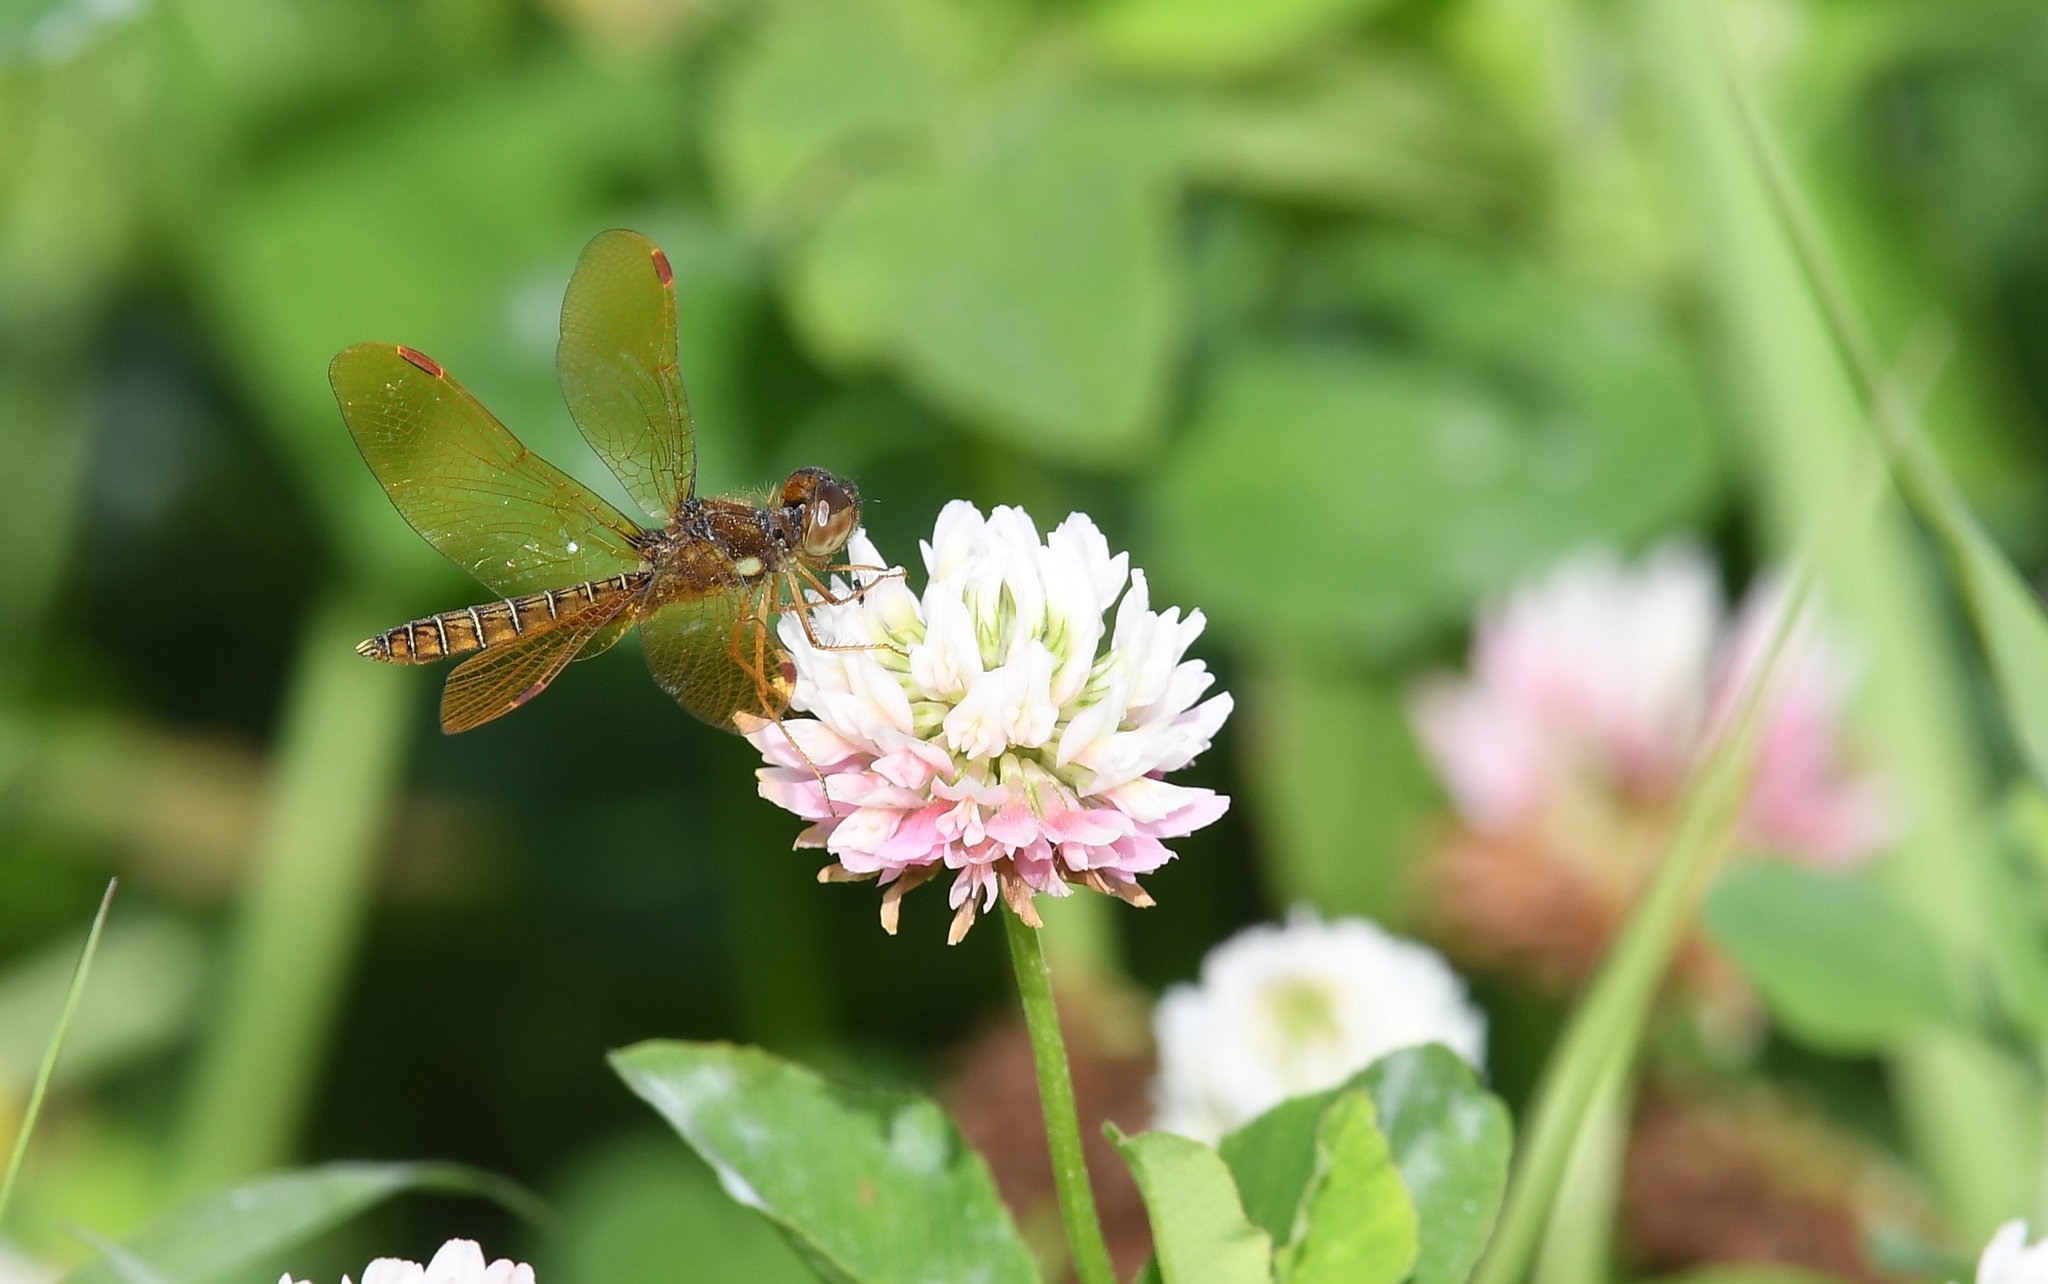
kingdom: Animalia
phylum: Arthropoda
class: Insecta
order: Odonata
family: Libellulidae
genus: Perithemis
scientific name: Perithemis tenera
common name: Eastern amberwing
